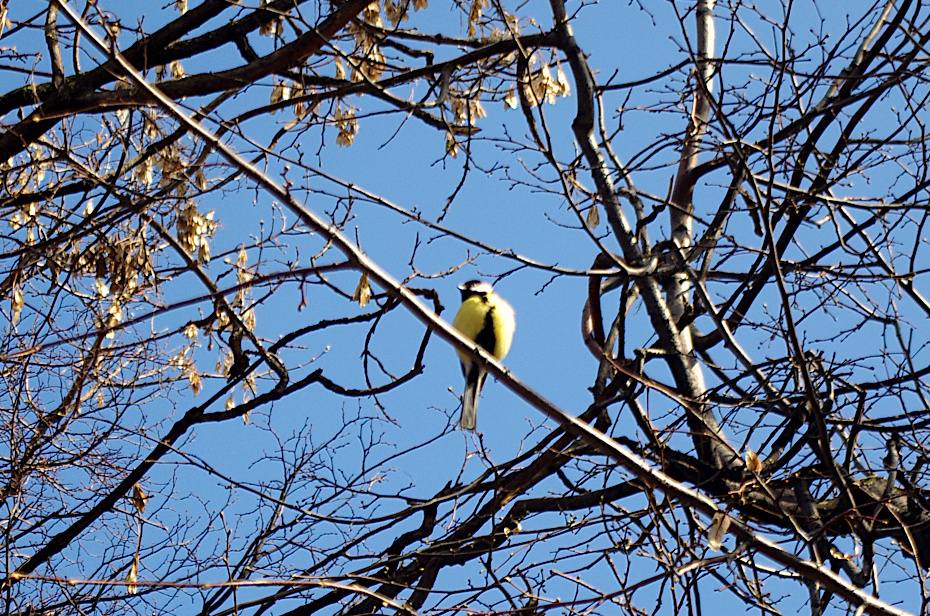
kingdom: Animalia
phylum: Chordata
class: Aves
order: Passeriformes
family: Paridae
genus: Parus
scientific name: Parus major
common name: Great tit
